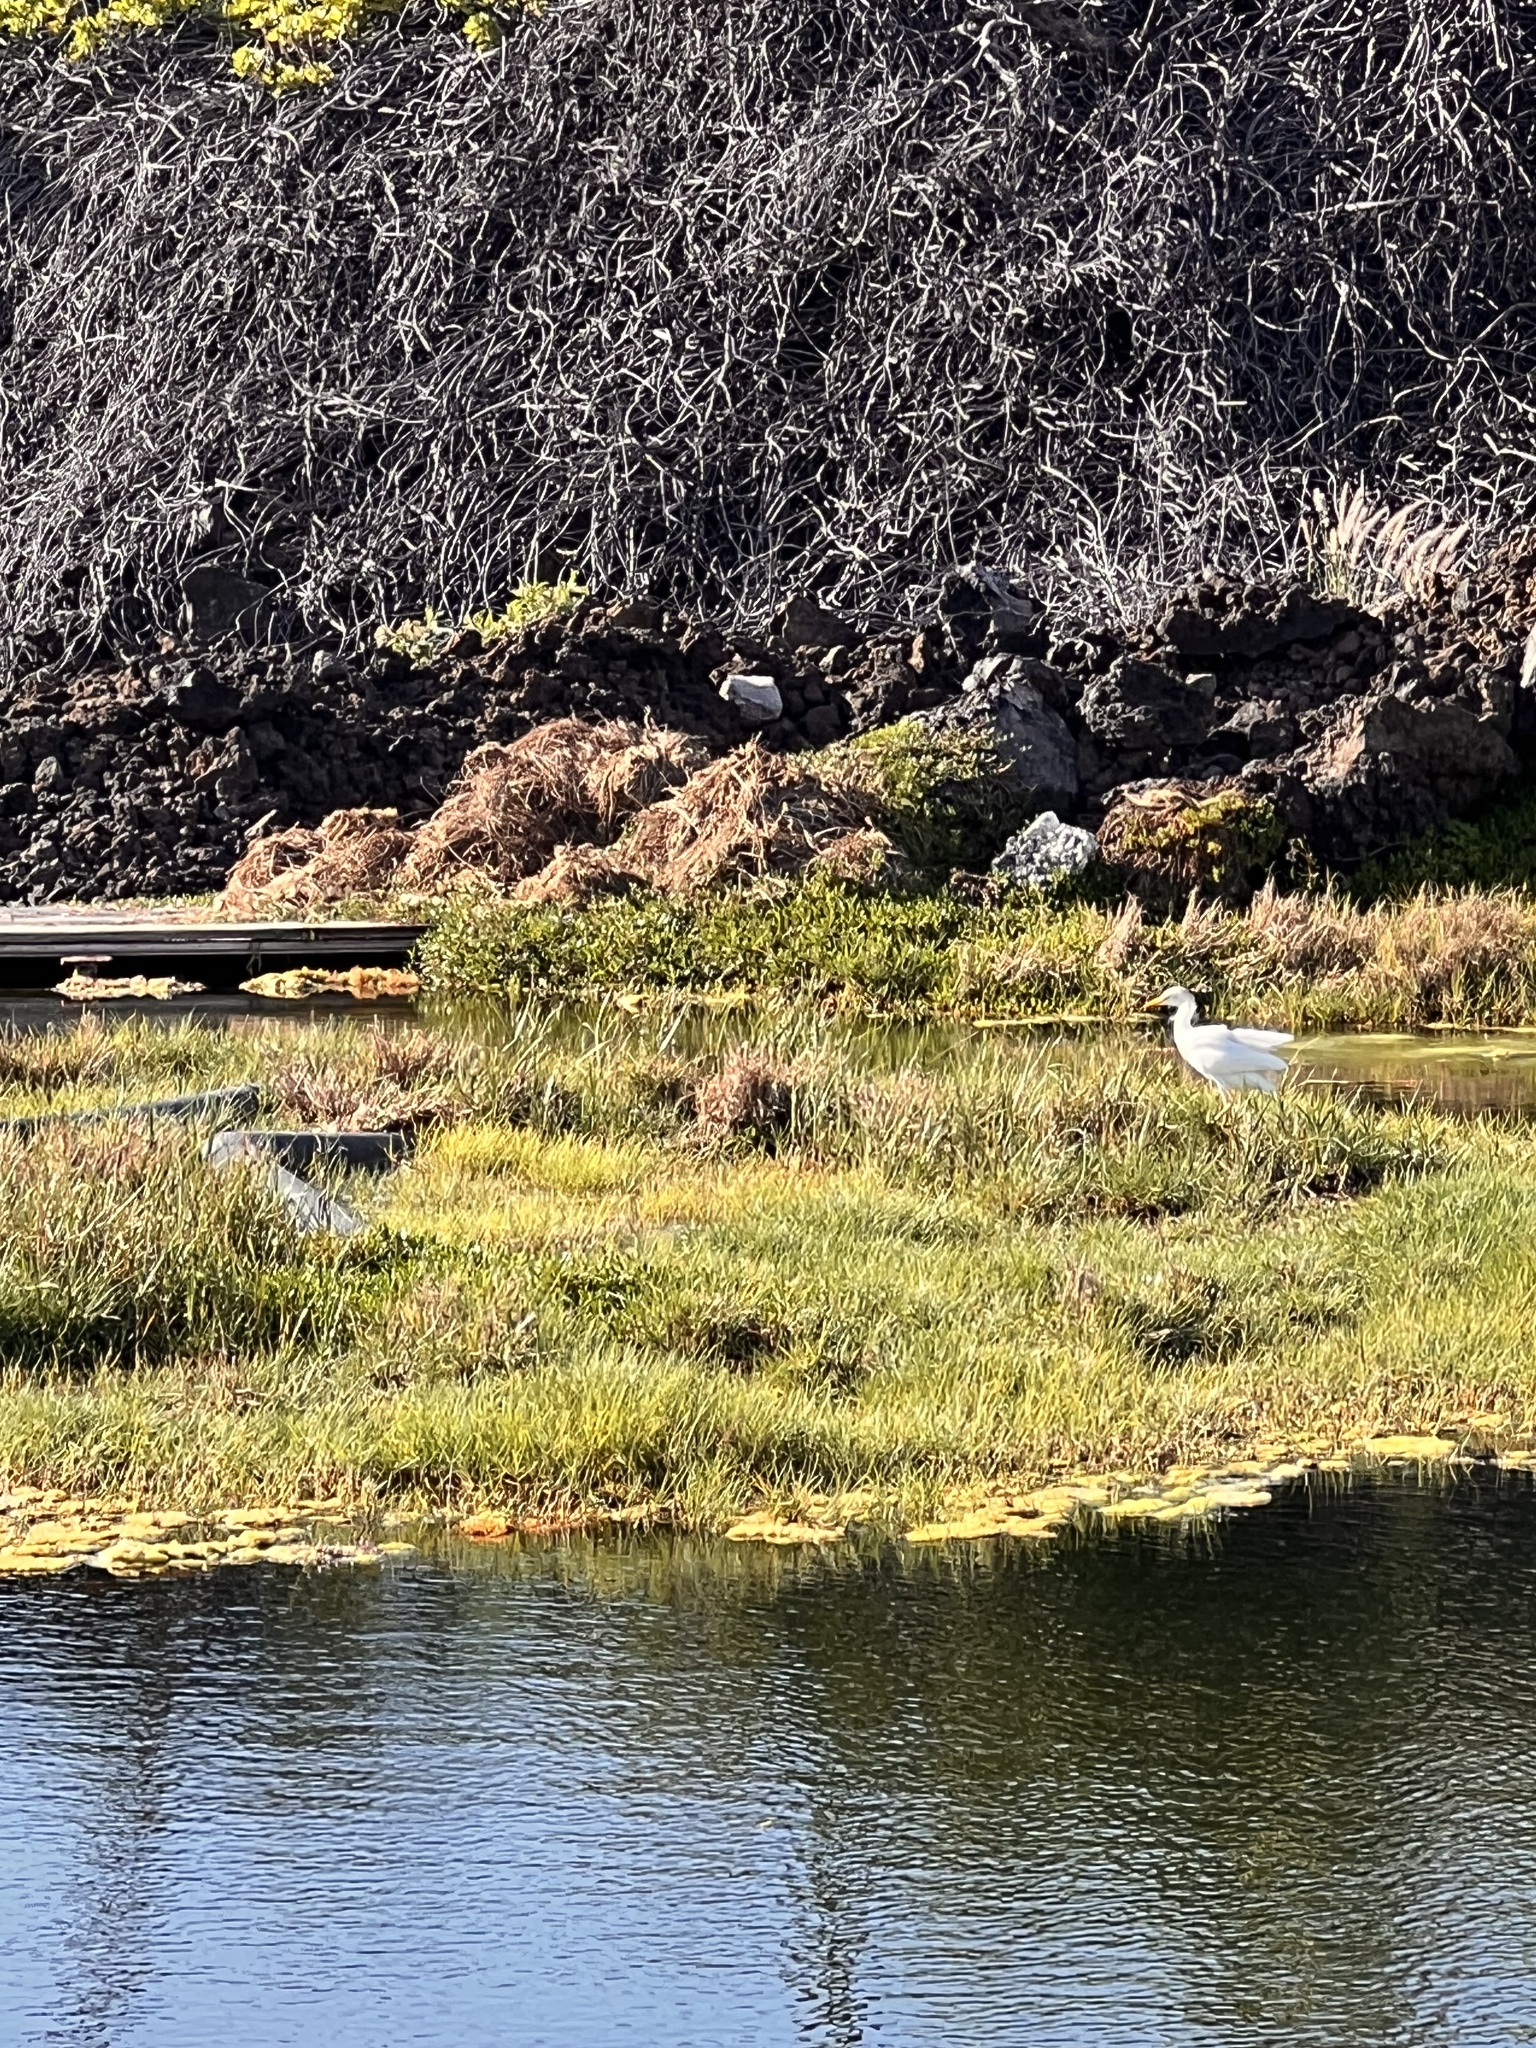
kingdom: Animalia
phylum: Chordata
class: Aves
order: Pelecaniformes
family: Ardeidae
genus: Bubulcus
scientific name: Bubulcus ibis
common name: Cattle egret
